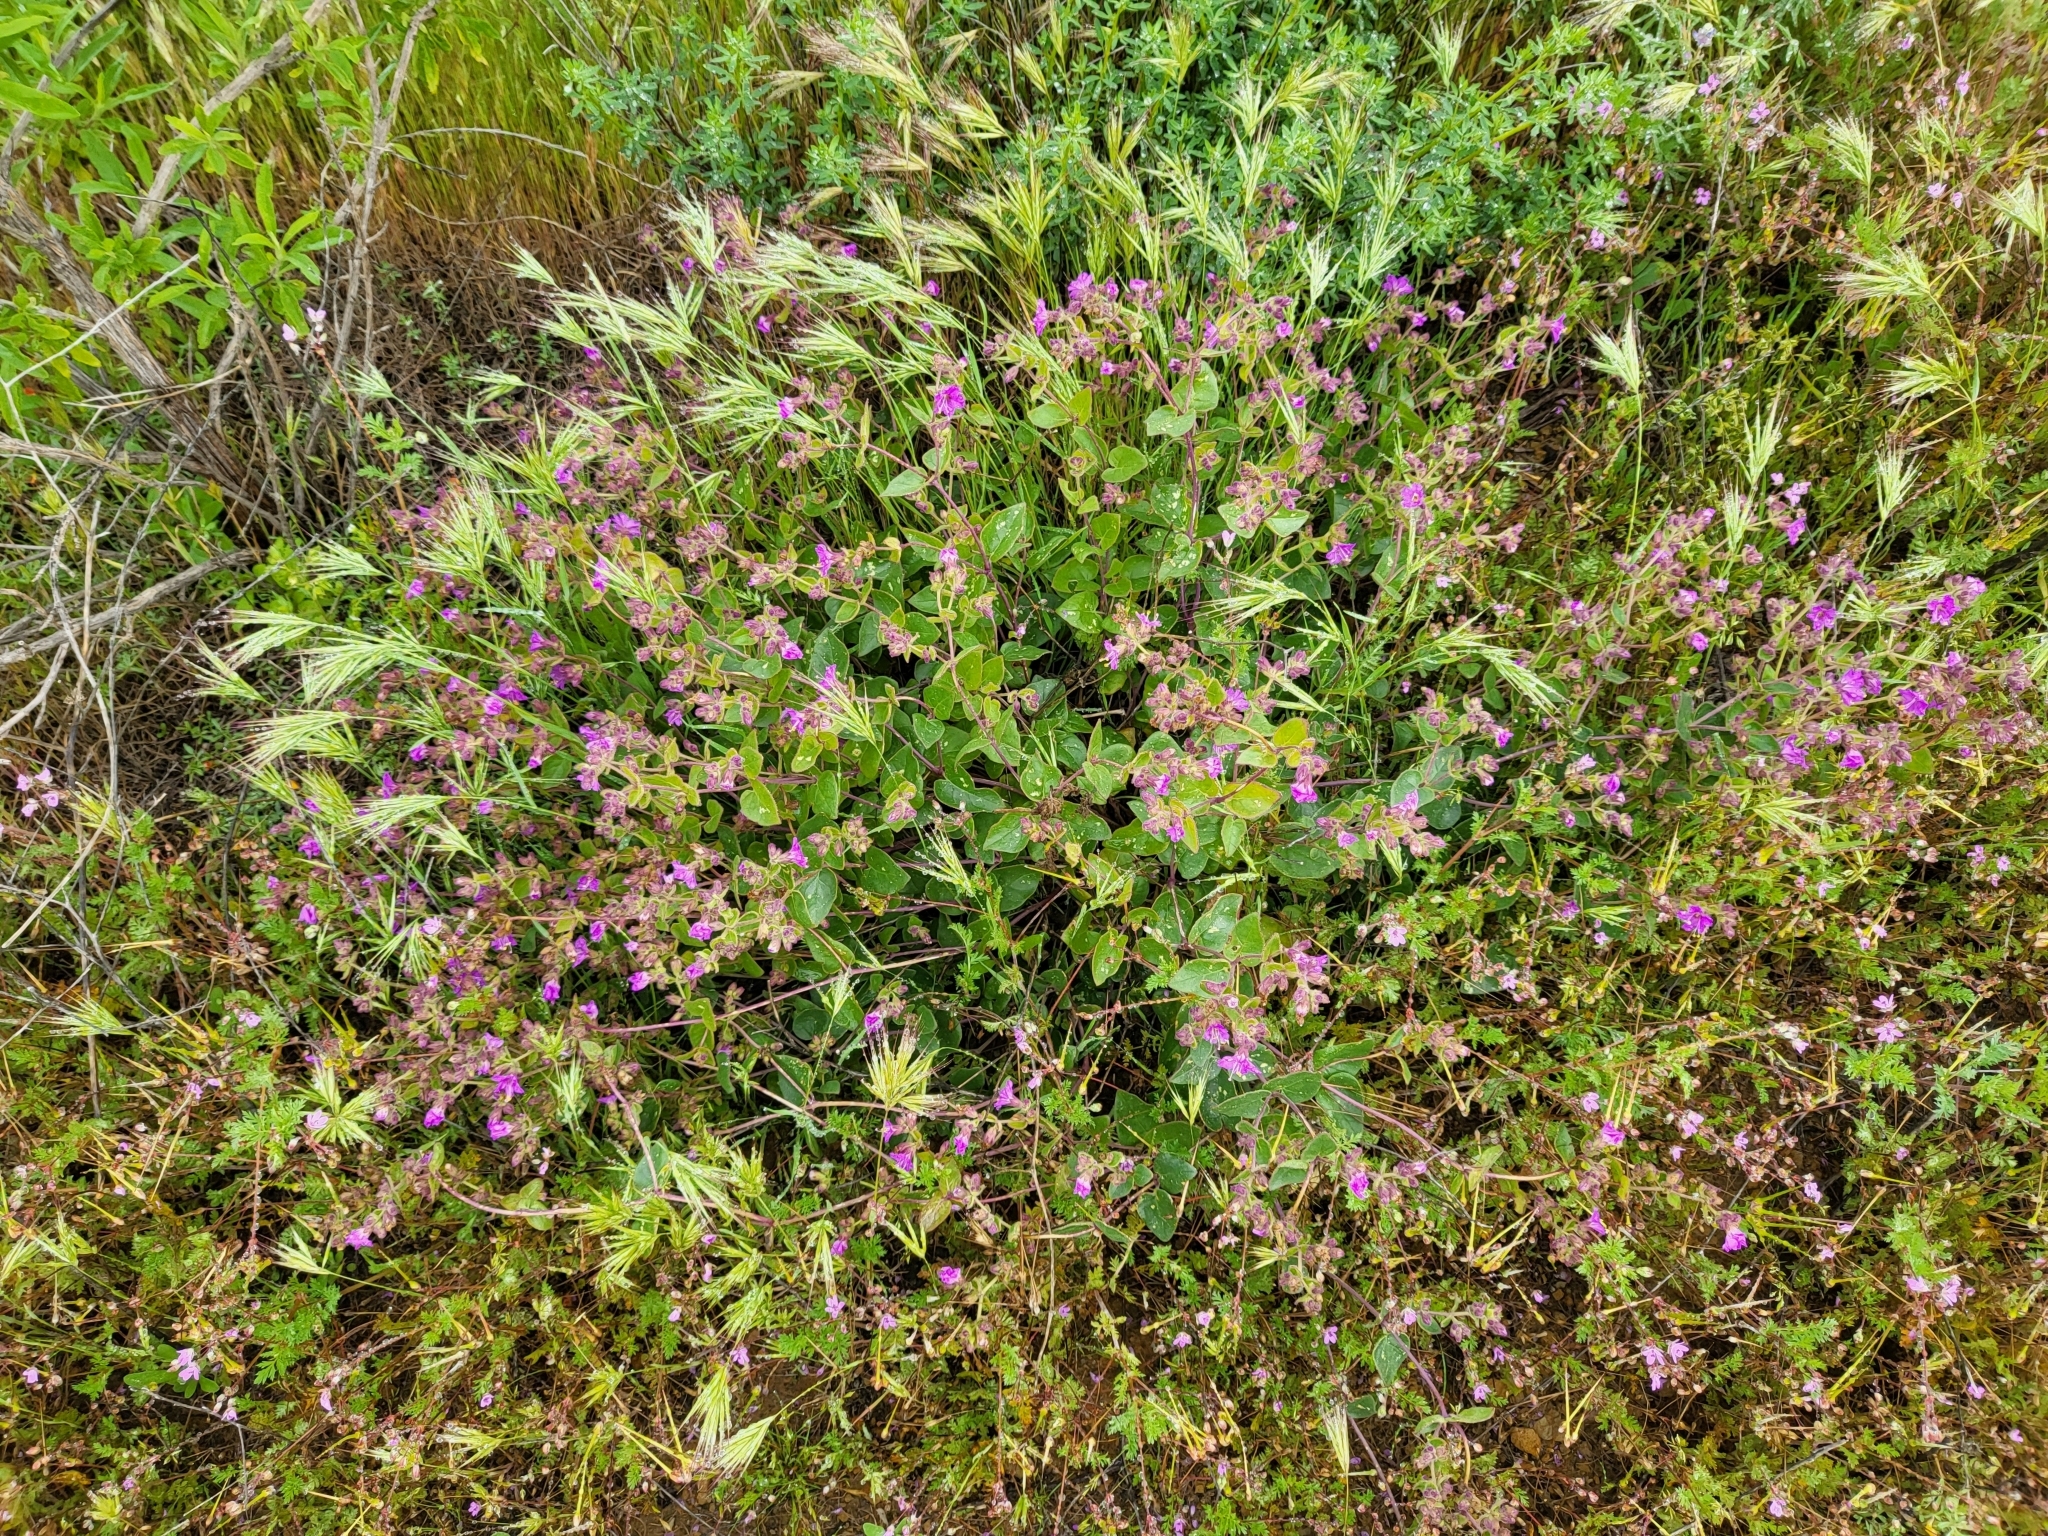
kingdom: Plantae
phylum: Tracheophyta
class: Magnoliopsida
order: Caryophyllales
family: Nyctaginaceae
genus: Mirabilis
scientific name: Mirabilis laevis
